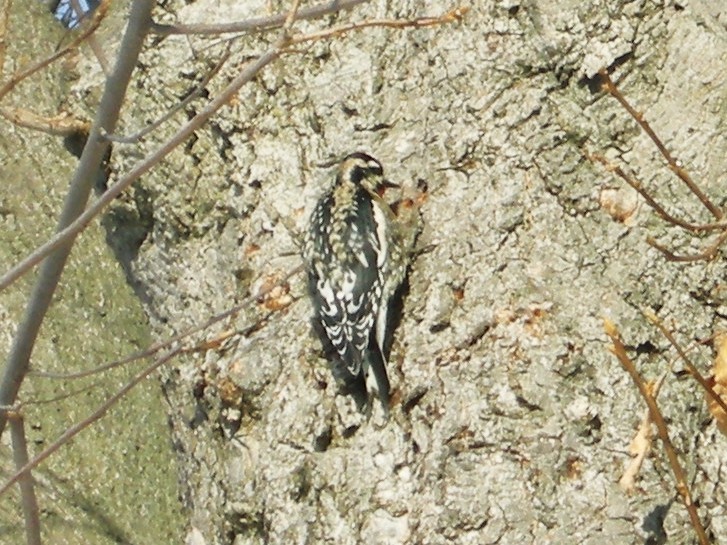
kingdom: Animalia
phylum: Chordata
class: Aves
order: Piciformes
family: Picidae
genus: Sphyrapicus
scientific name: Sphyrapicus varius
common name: Yellow-bellied sapsucker
